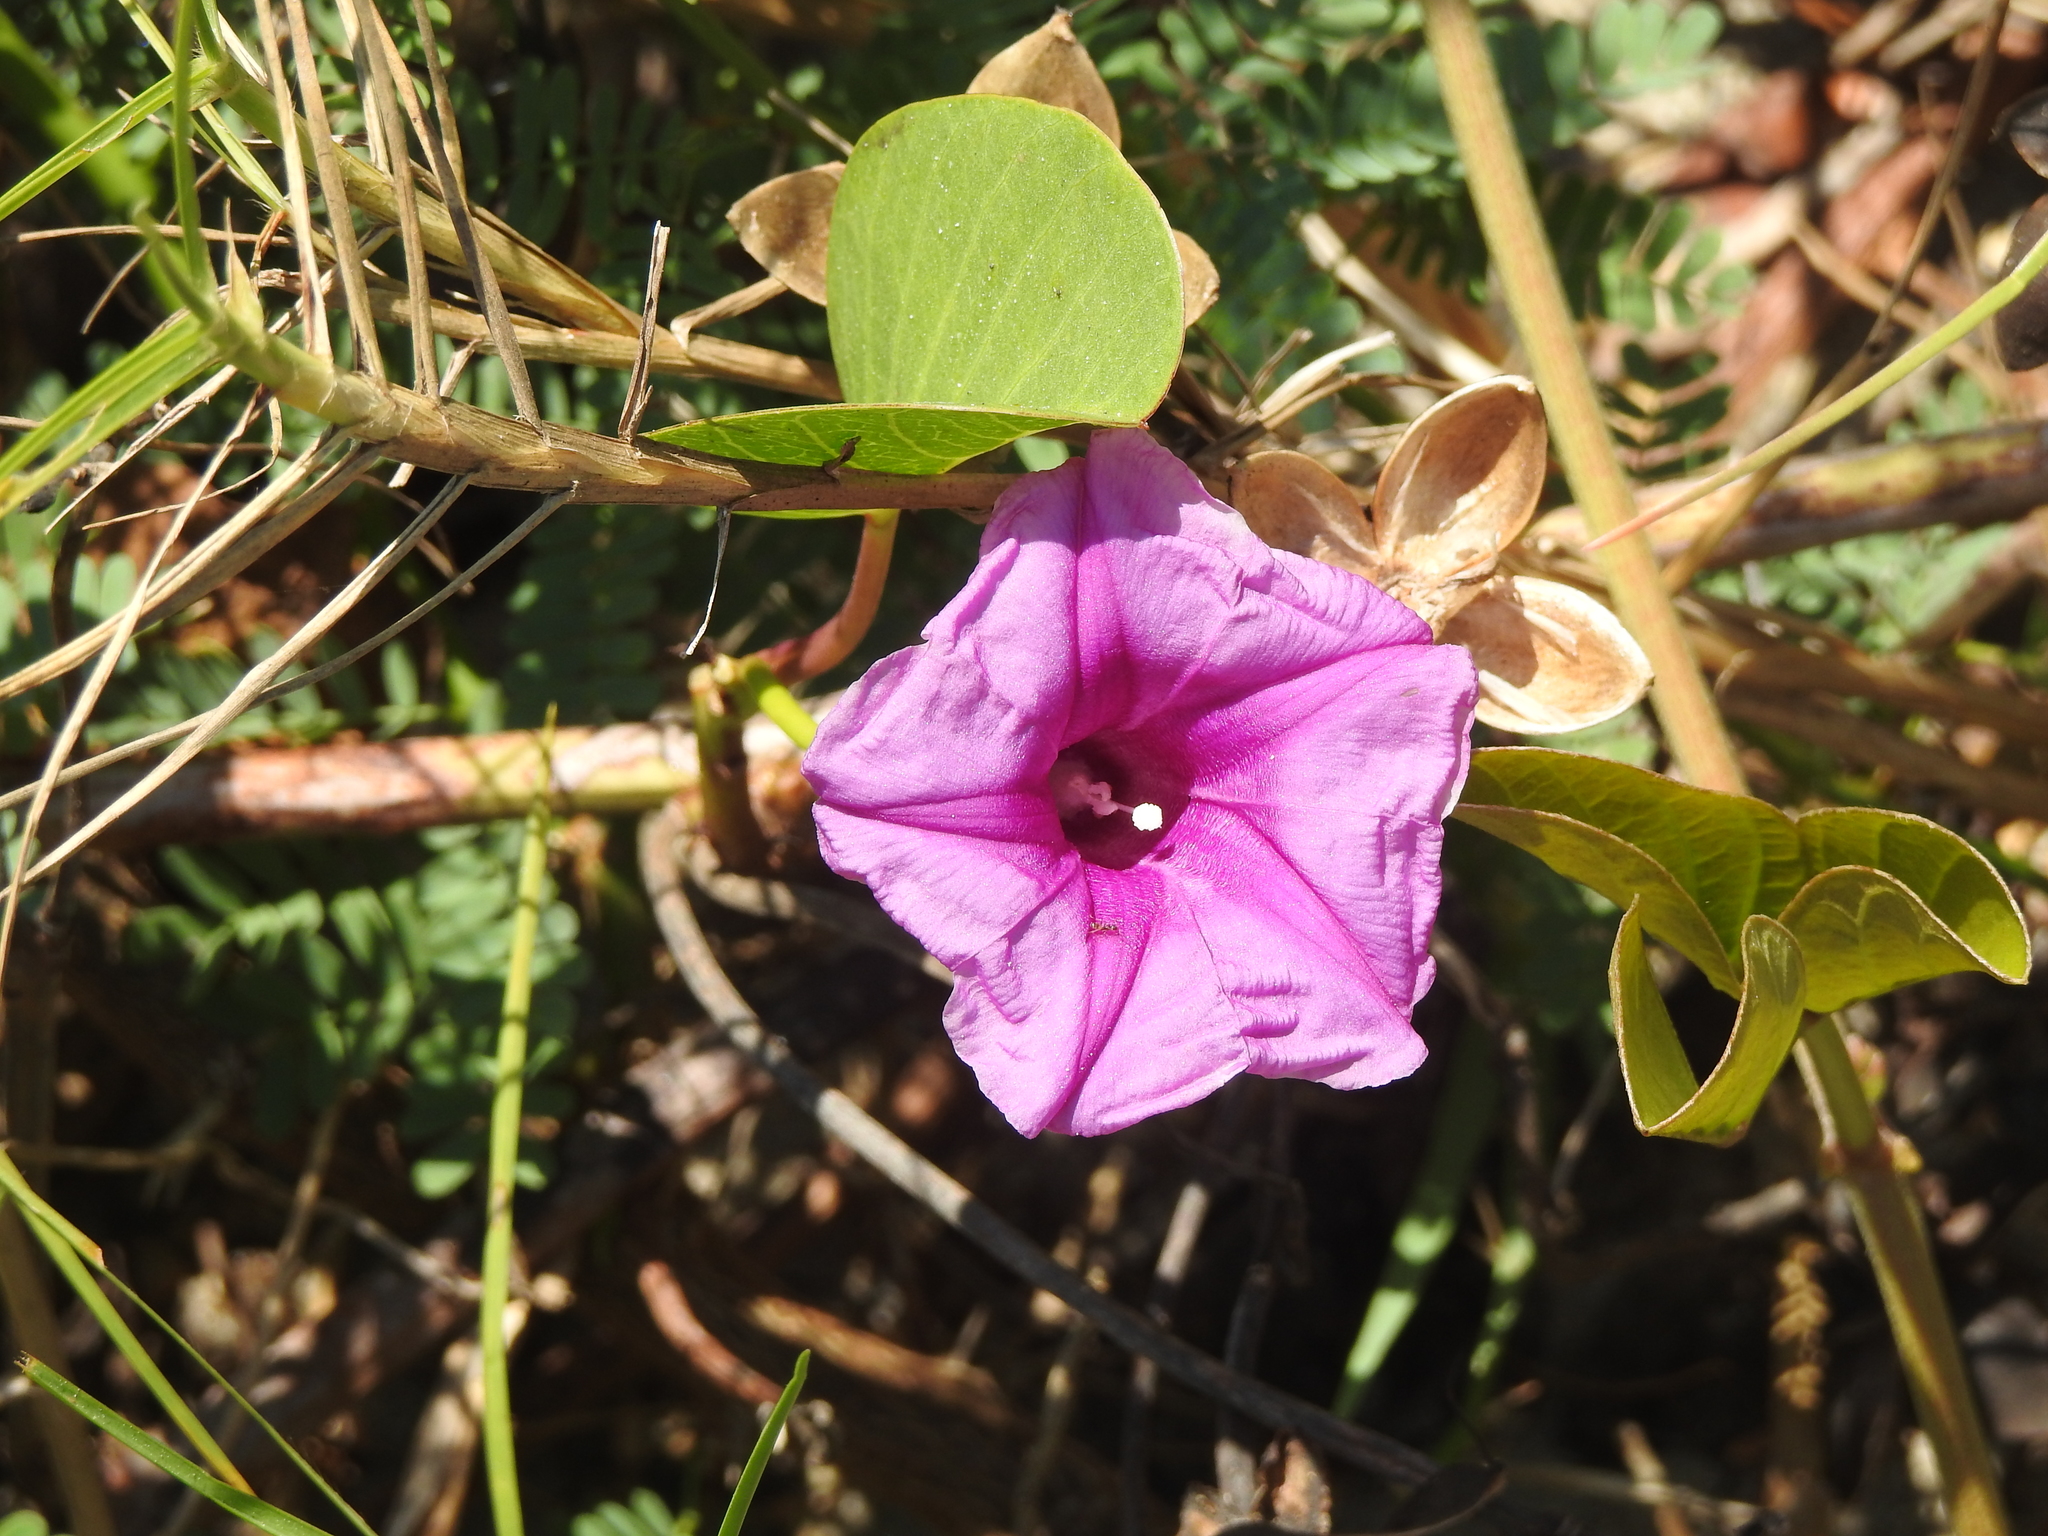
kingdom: Plantae
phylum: Tracheophyta
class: Magnoliopsida
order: Solanales
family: Convolvulaceae
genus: Ipomoea
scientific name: Ipomoea pes-caprae
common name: Beach morning glory
